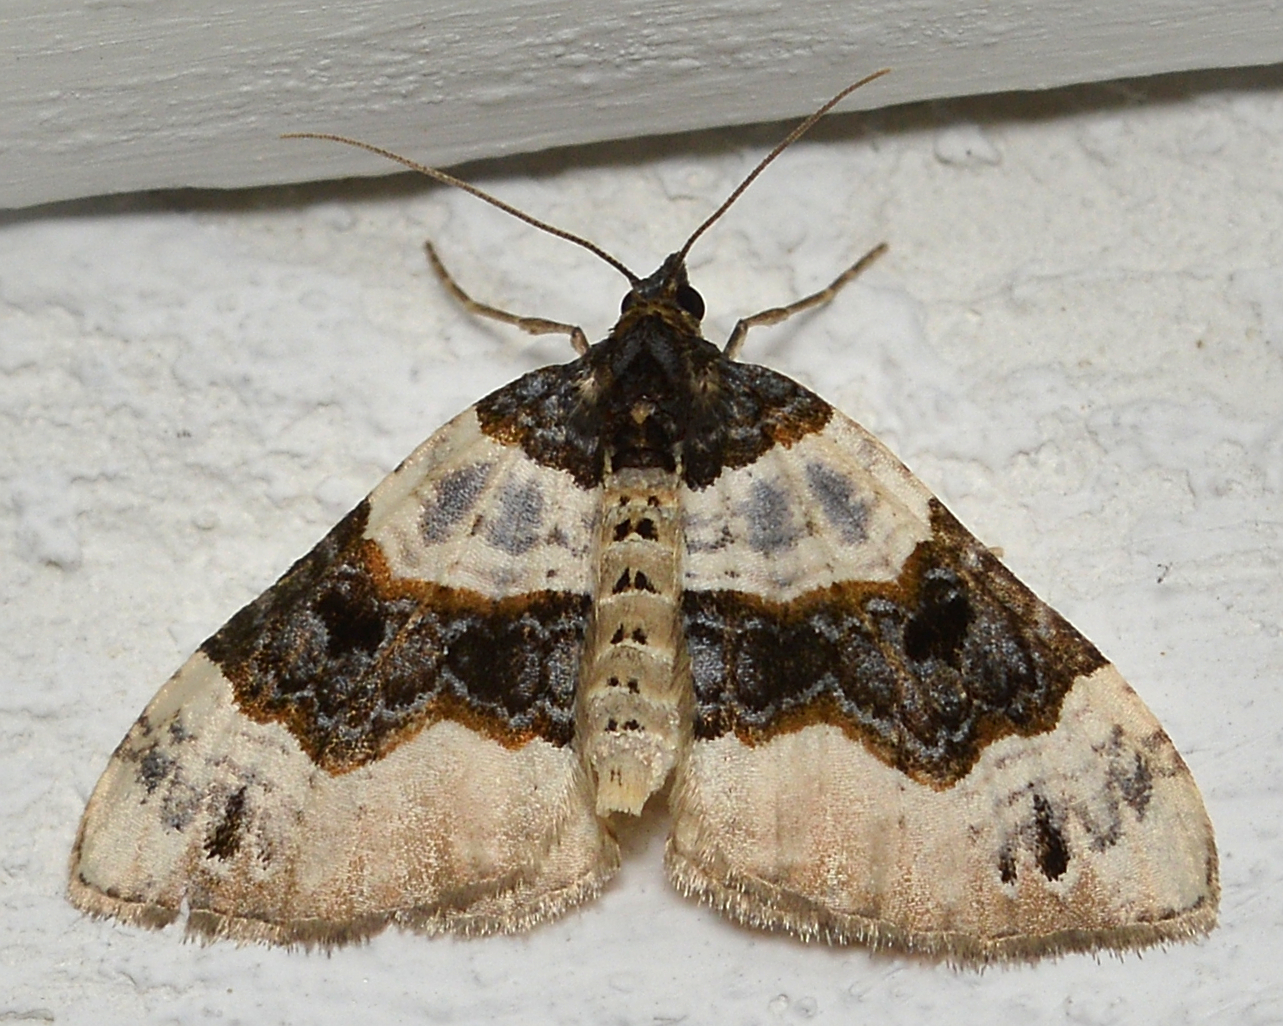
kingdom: Animalia
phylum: Arthropoda
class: Insecta
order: Lepidoptera
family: Geometridae
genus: Cosmorhoe
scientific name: Cosmorhoe ocellata
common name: Purple bar
